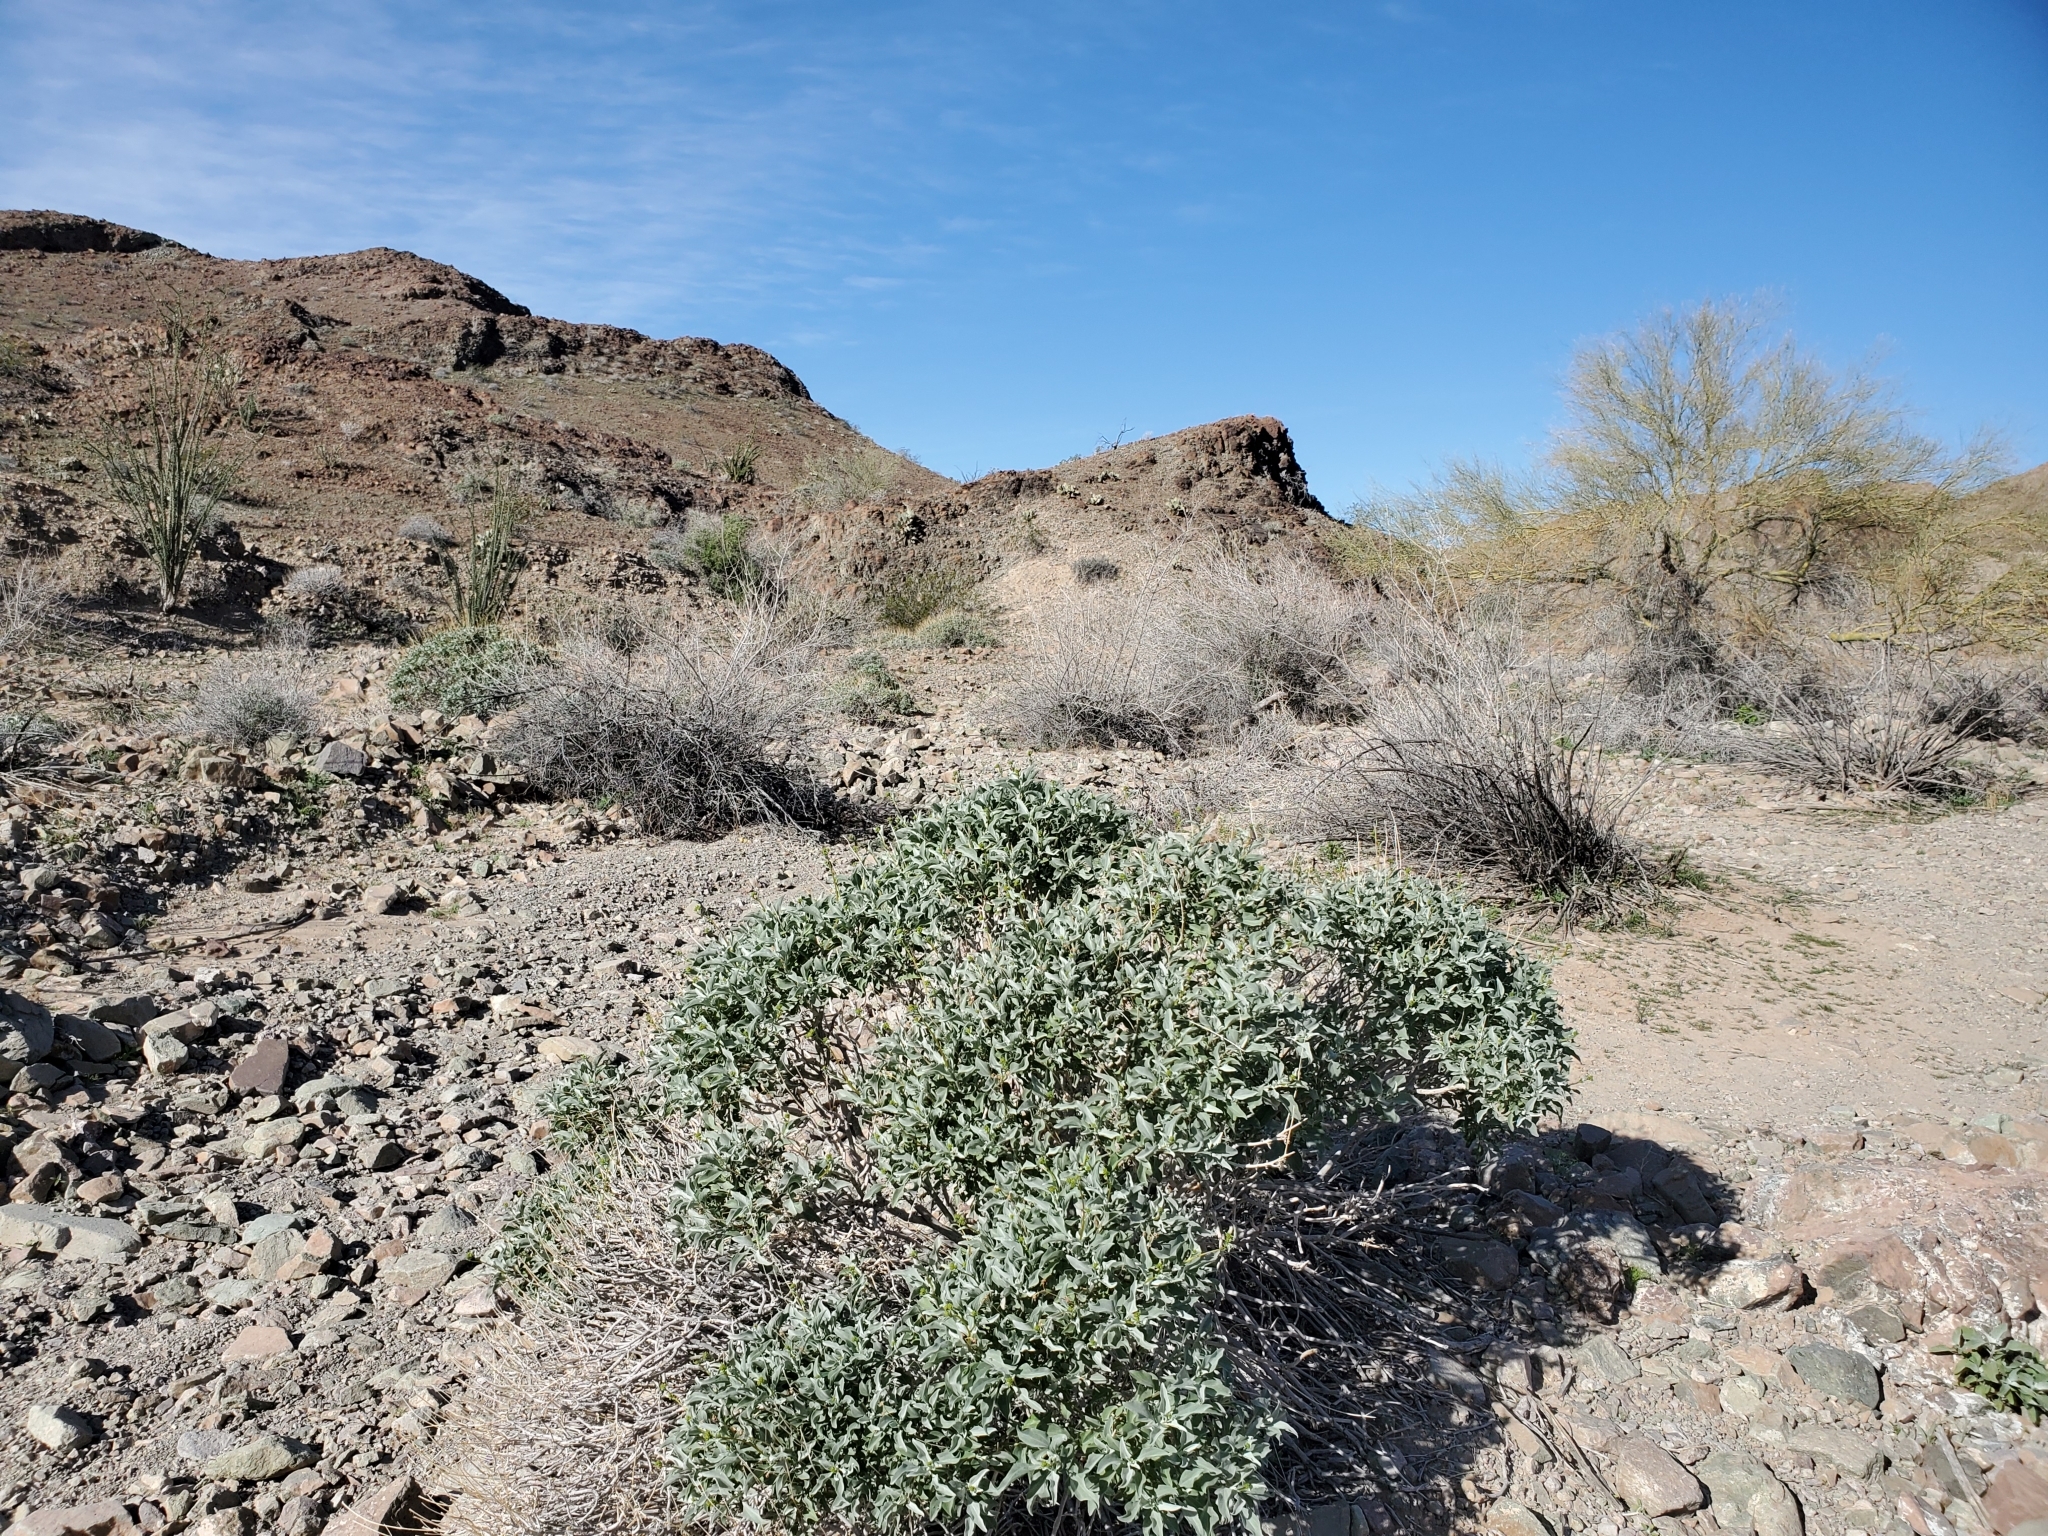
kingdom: Plantae
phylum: Tracheophyta
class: Magnoliopsida
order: Asterales
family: Asteraceae
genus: Encelia
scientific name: Encelia farinosa
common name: Brittlebush
